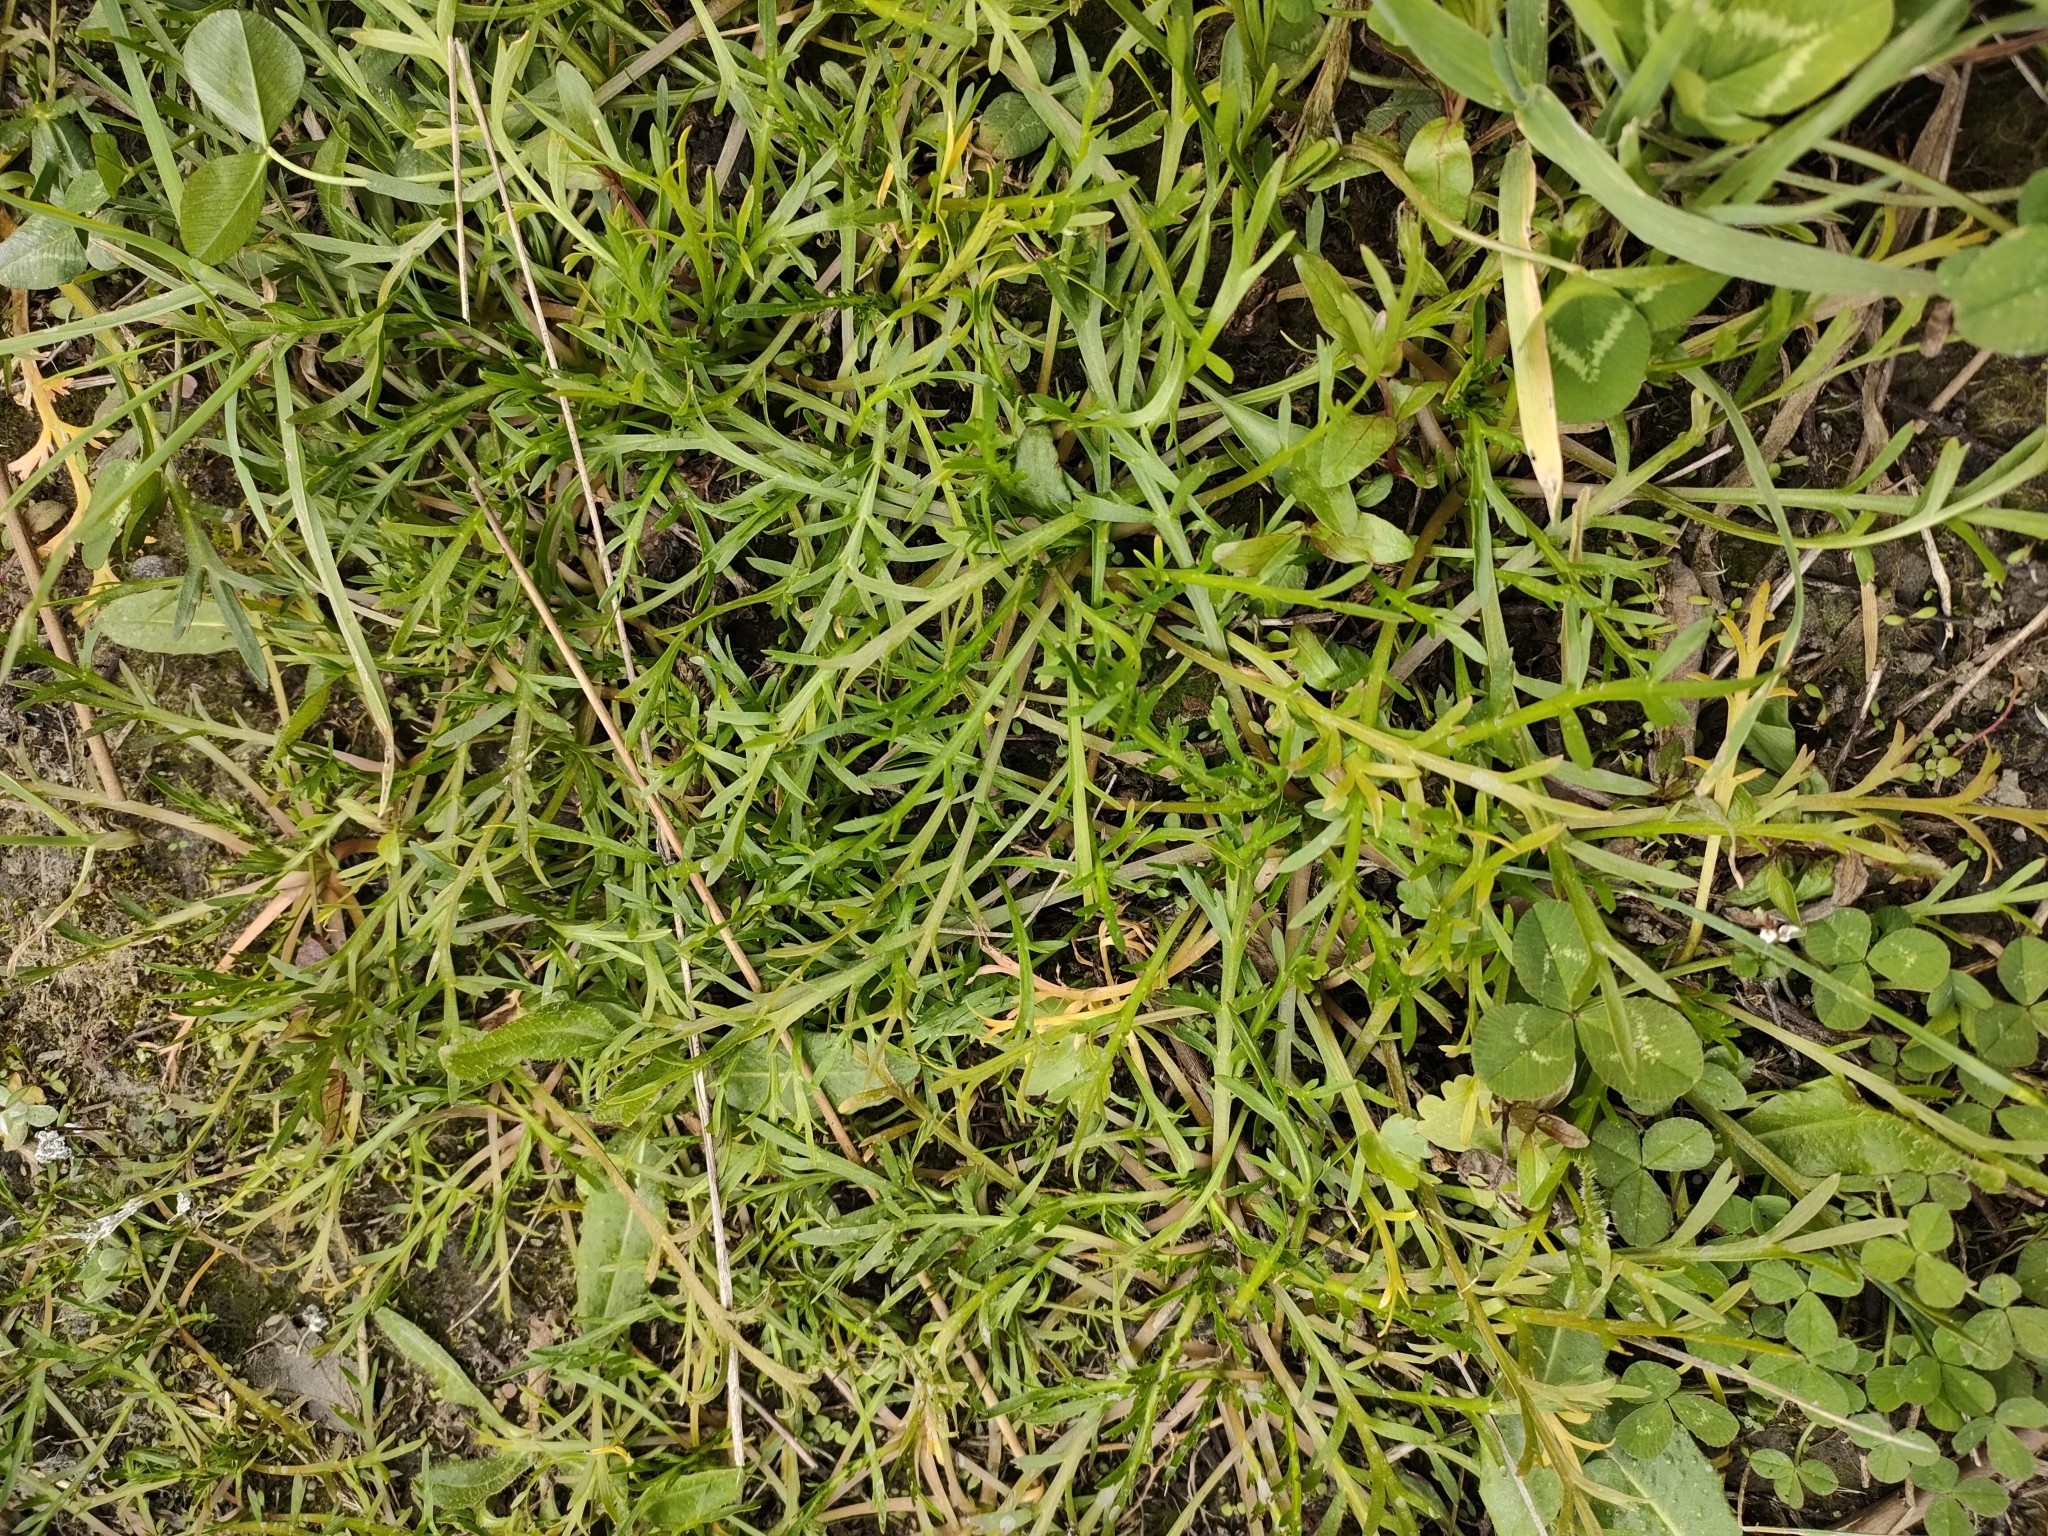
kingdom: Plantae
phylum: Tracheophyta
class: Magnoliopsida
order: Brassicales
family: Brassicaceae
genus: Lepidium
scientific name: Lepidium coronopus
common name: Greater swinecress
